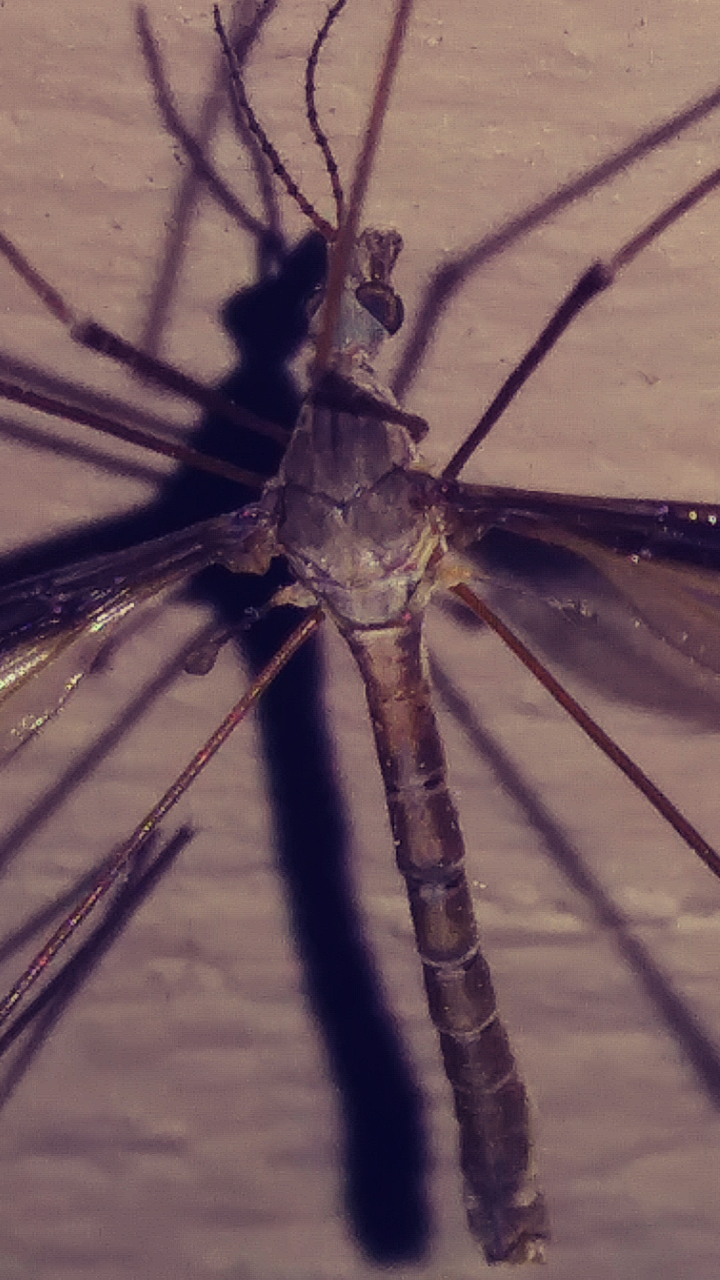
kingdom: Animalia
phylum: Arthropoda
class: Insecta
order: Diptera
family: Tipulidae
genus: Tipula
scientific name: Tipula furca
